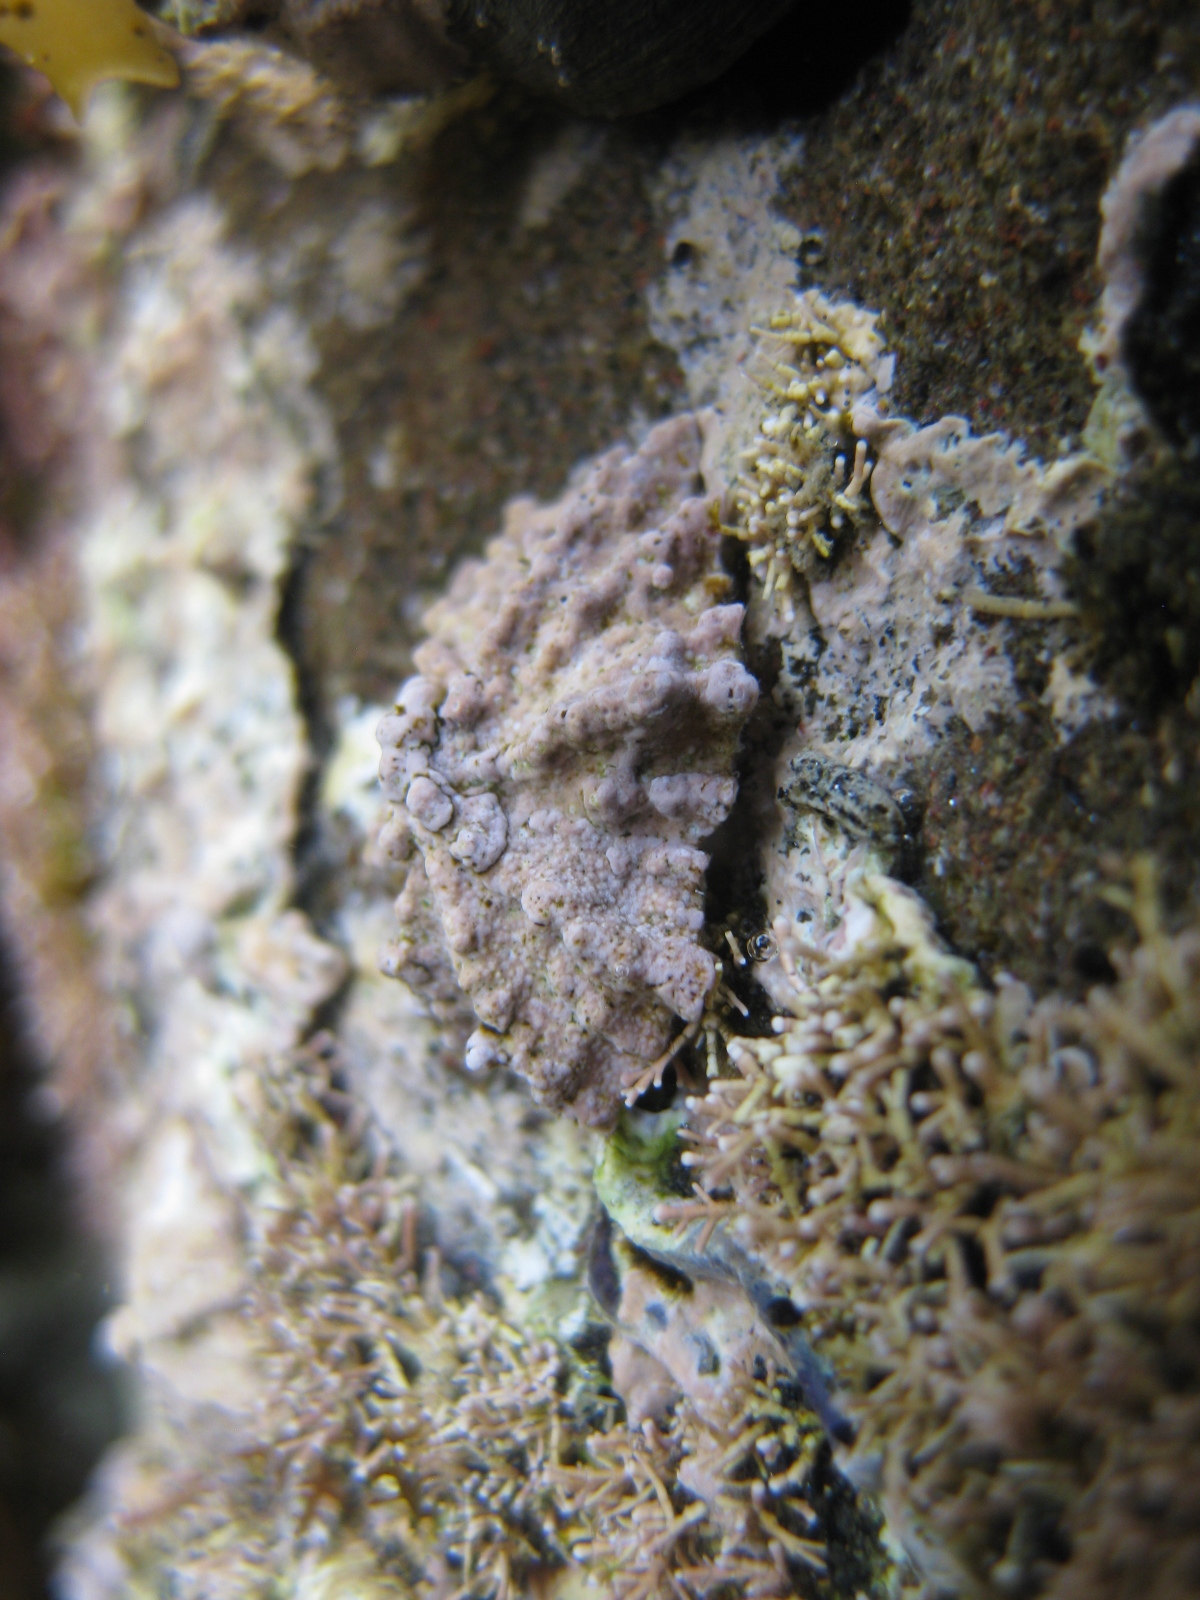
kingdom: Animalia
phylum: Mollusca
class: Gastropoda
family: Lottiidae
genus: Patelloida
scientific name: Patelloida corticata
